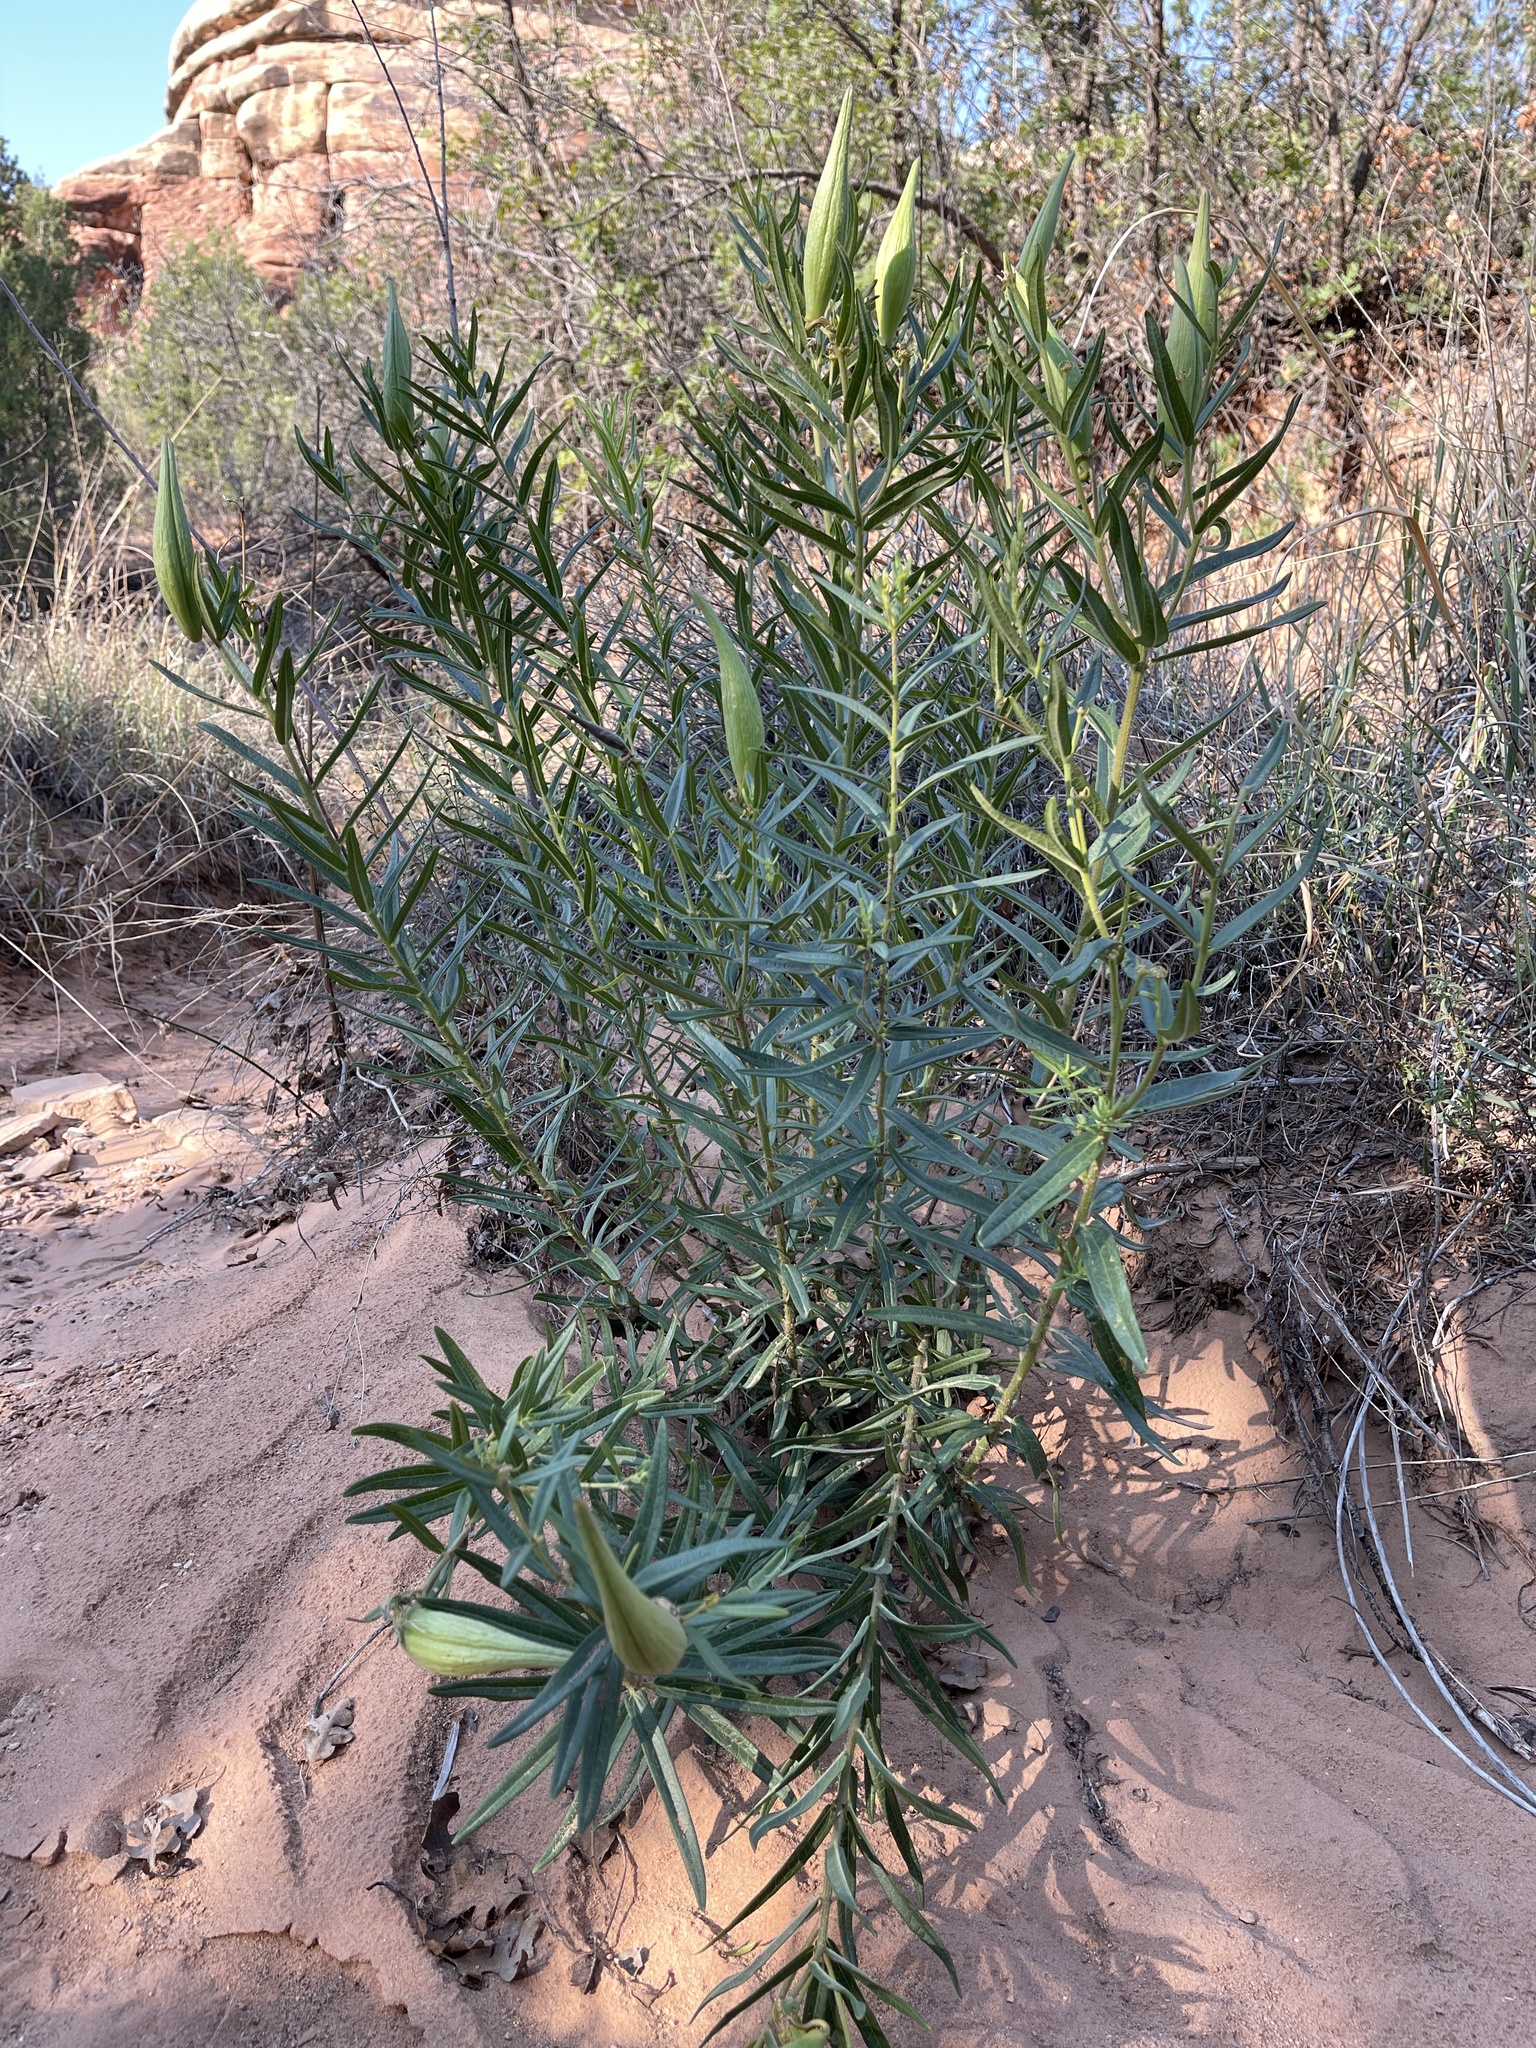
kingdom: Plantae
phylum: Tracheophyta
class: Magnoliopsida
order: Gentianales
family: Apocynaceae
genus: Asclepias
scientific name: Asclepias tuberosa
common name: Butterfly milkweed
